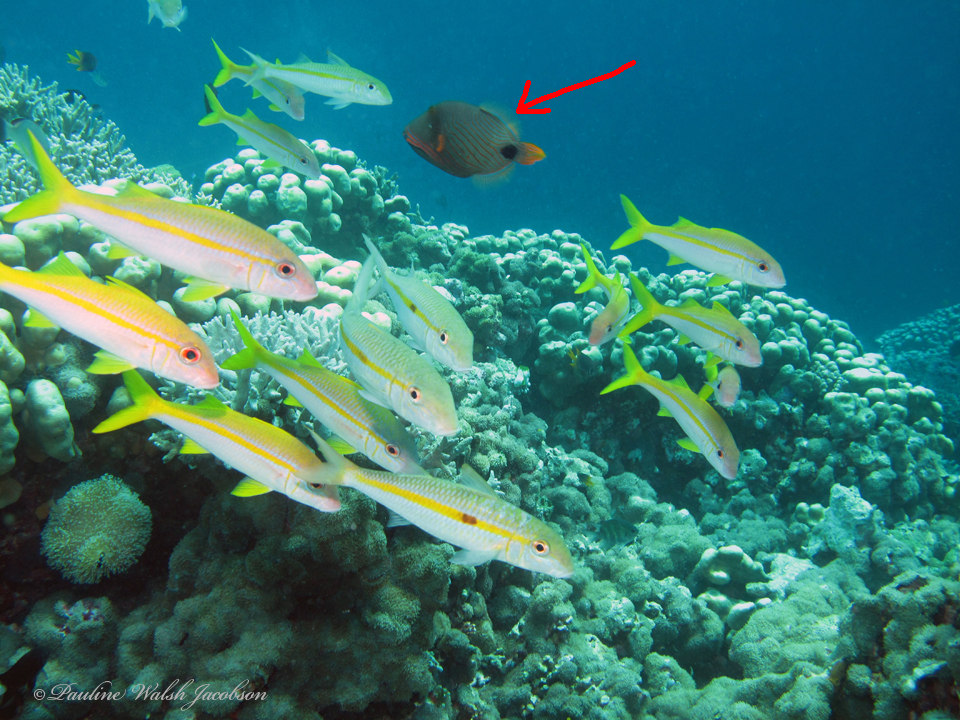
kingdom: Animalia
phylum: Chordata
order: Tetraodontiformes
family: Balistidae
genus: Balistapus
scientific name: Balistapus undulatus
